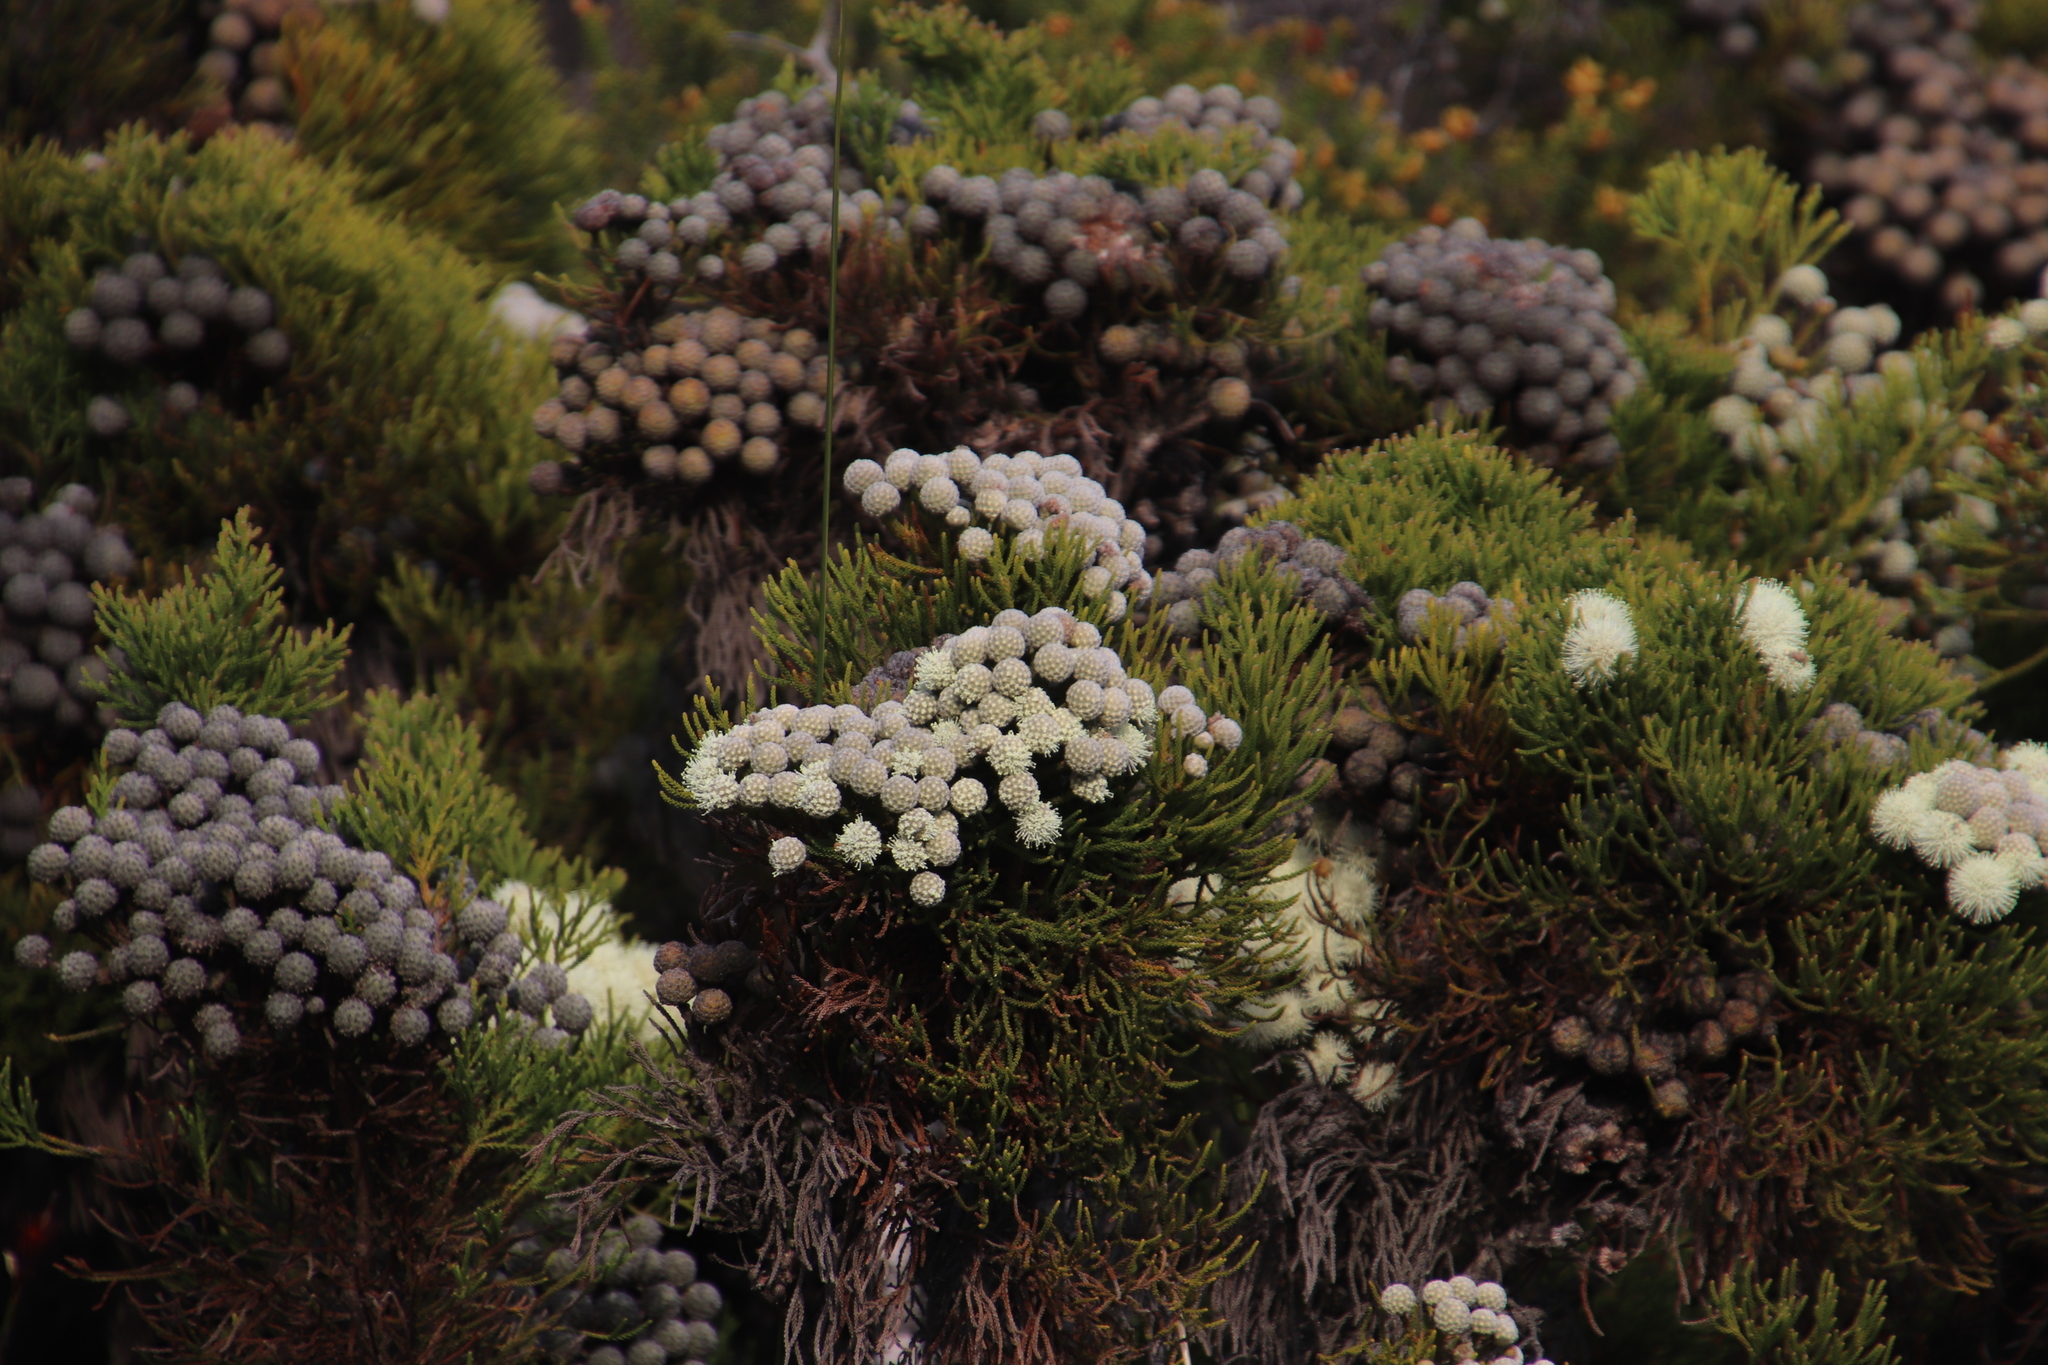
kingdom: Plantae
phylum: Tracheophyta
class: Magnoliopsida
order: Bruniales
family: Bruniaceae
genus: Brunia
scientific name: Brunia noduliflora
